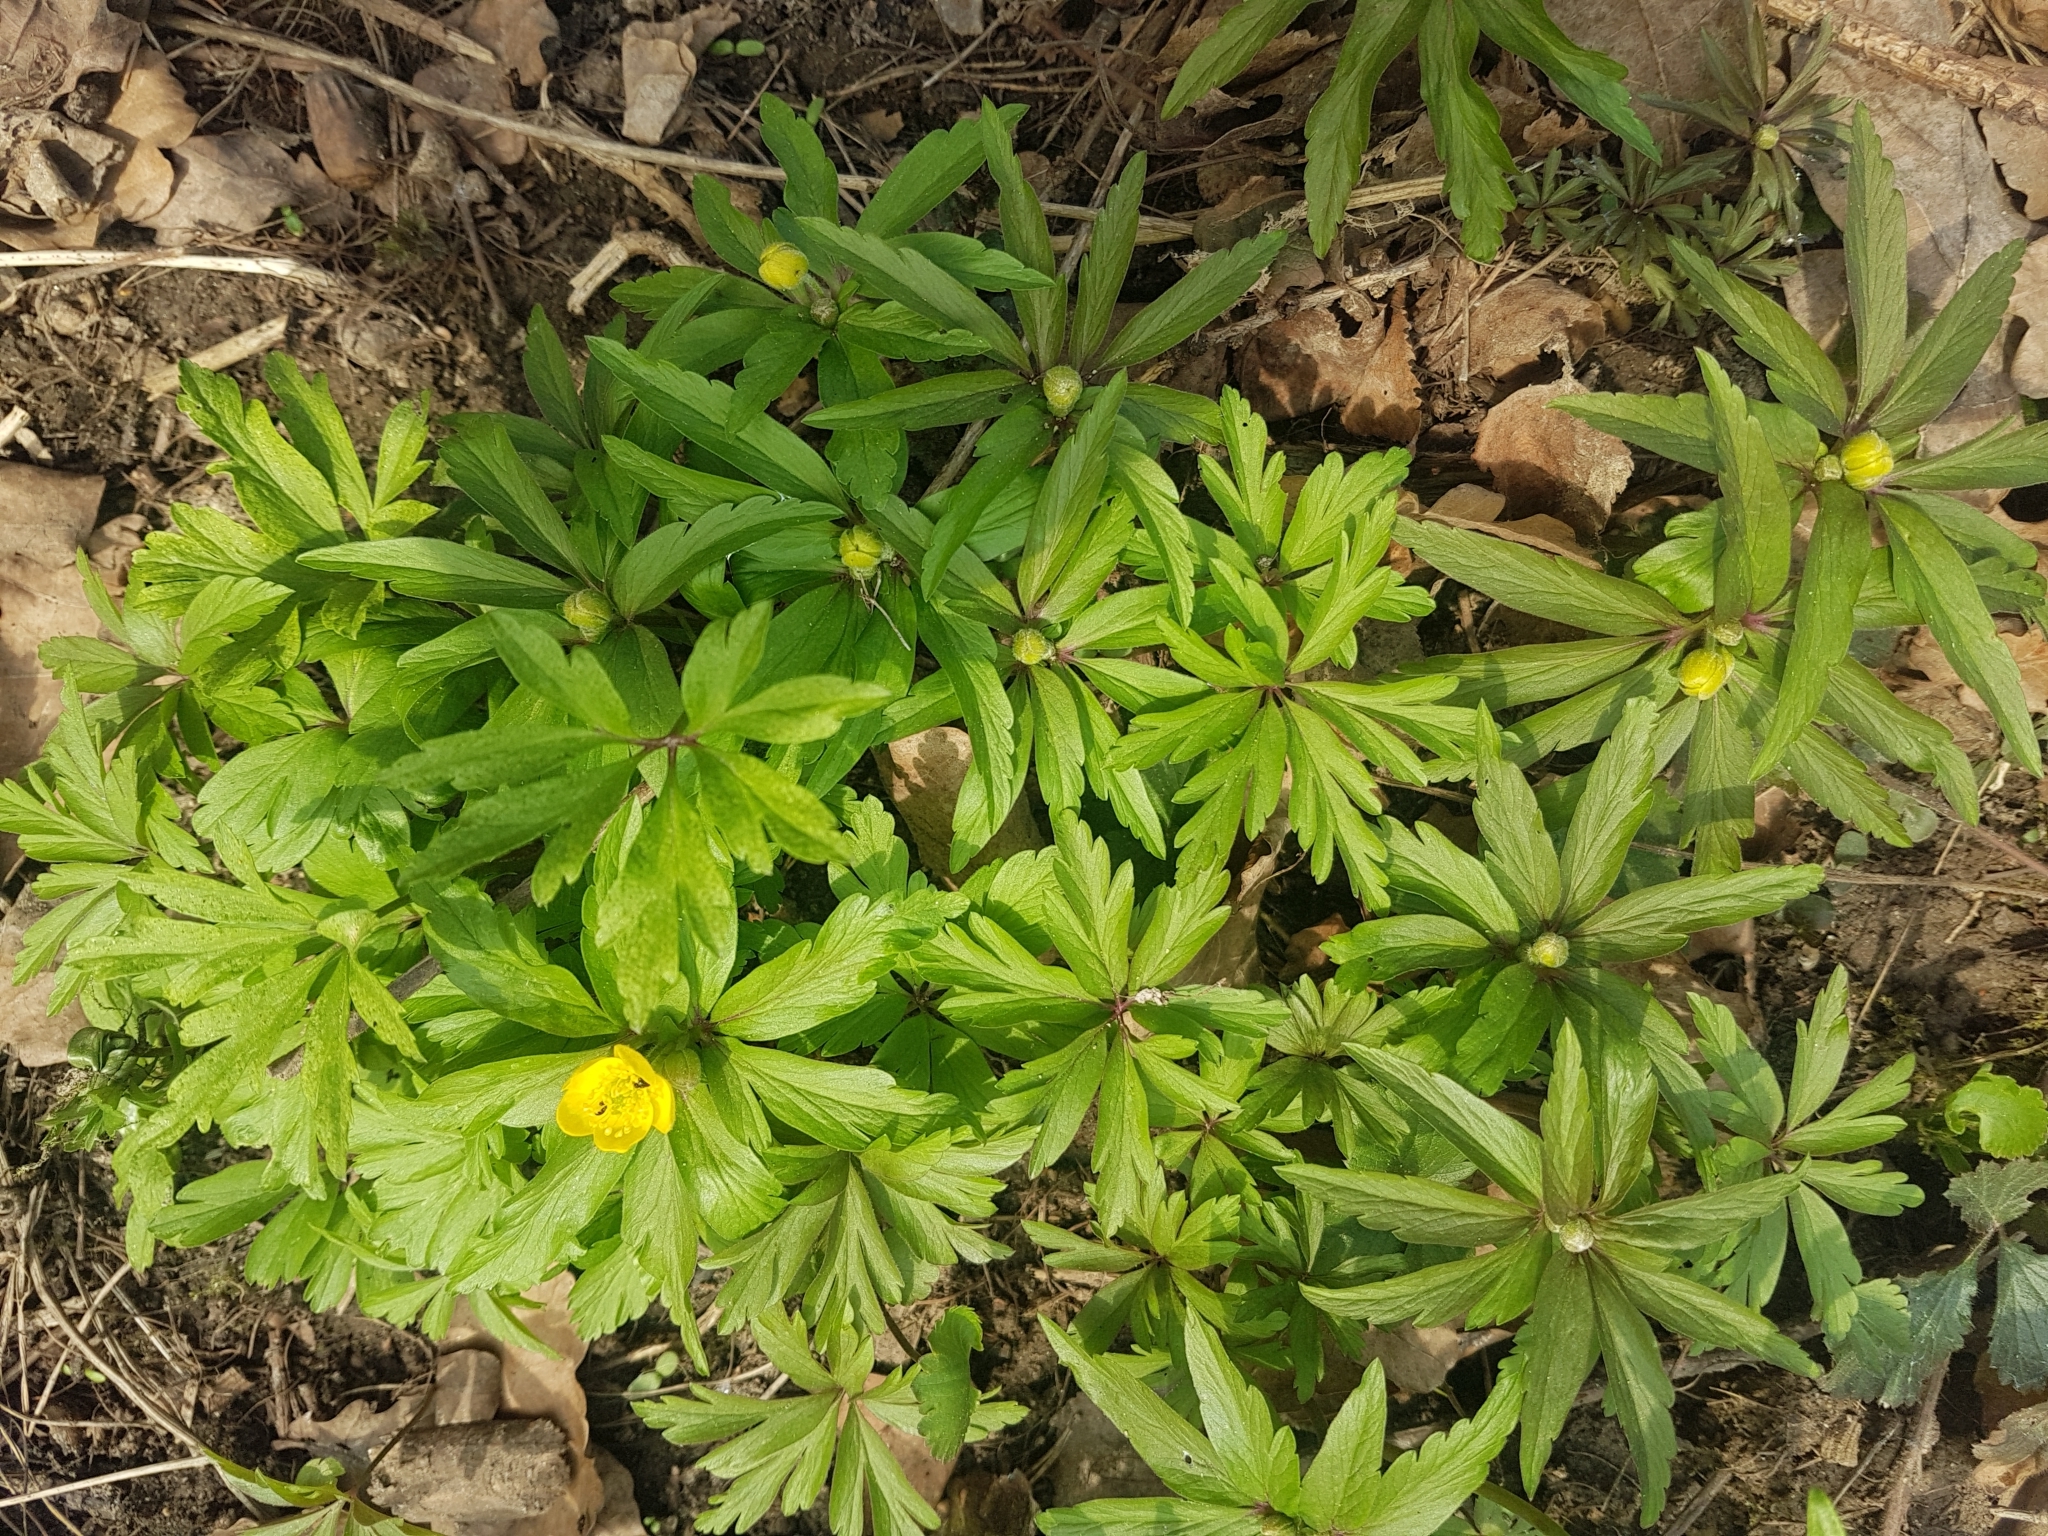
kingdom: Plantae
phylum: Tracheophyta
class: Magnoliopsida
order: Ranunculales
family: Ranunculaceae
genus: Anemone
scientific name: Anemone ranunculoides
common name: Yellow anemone
